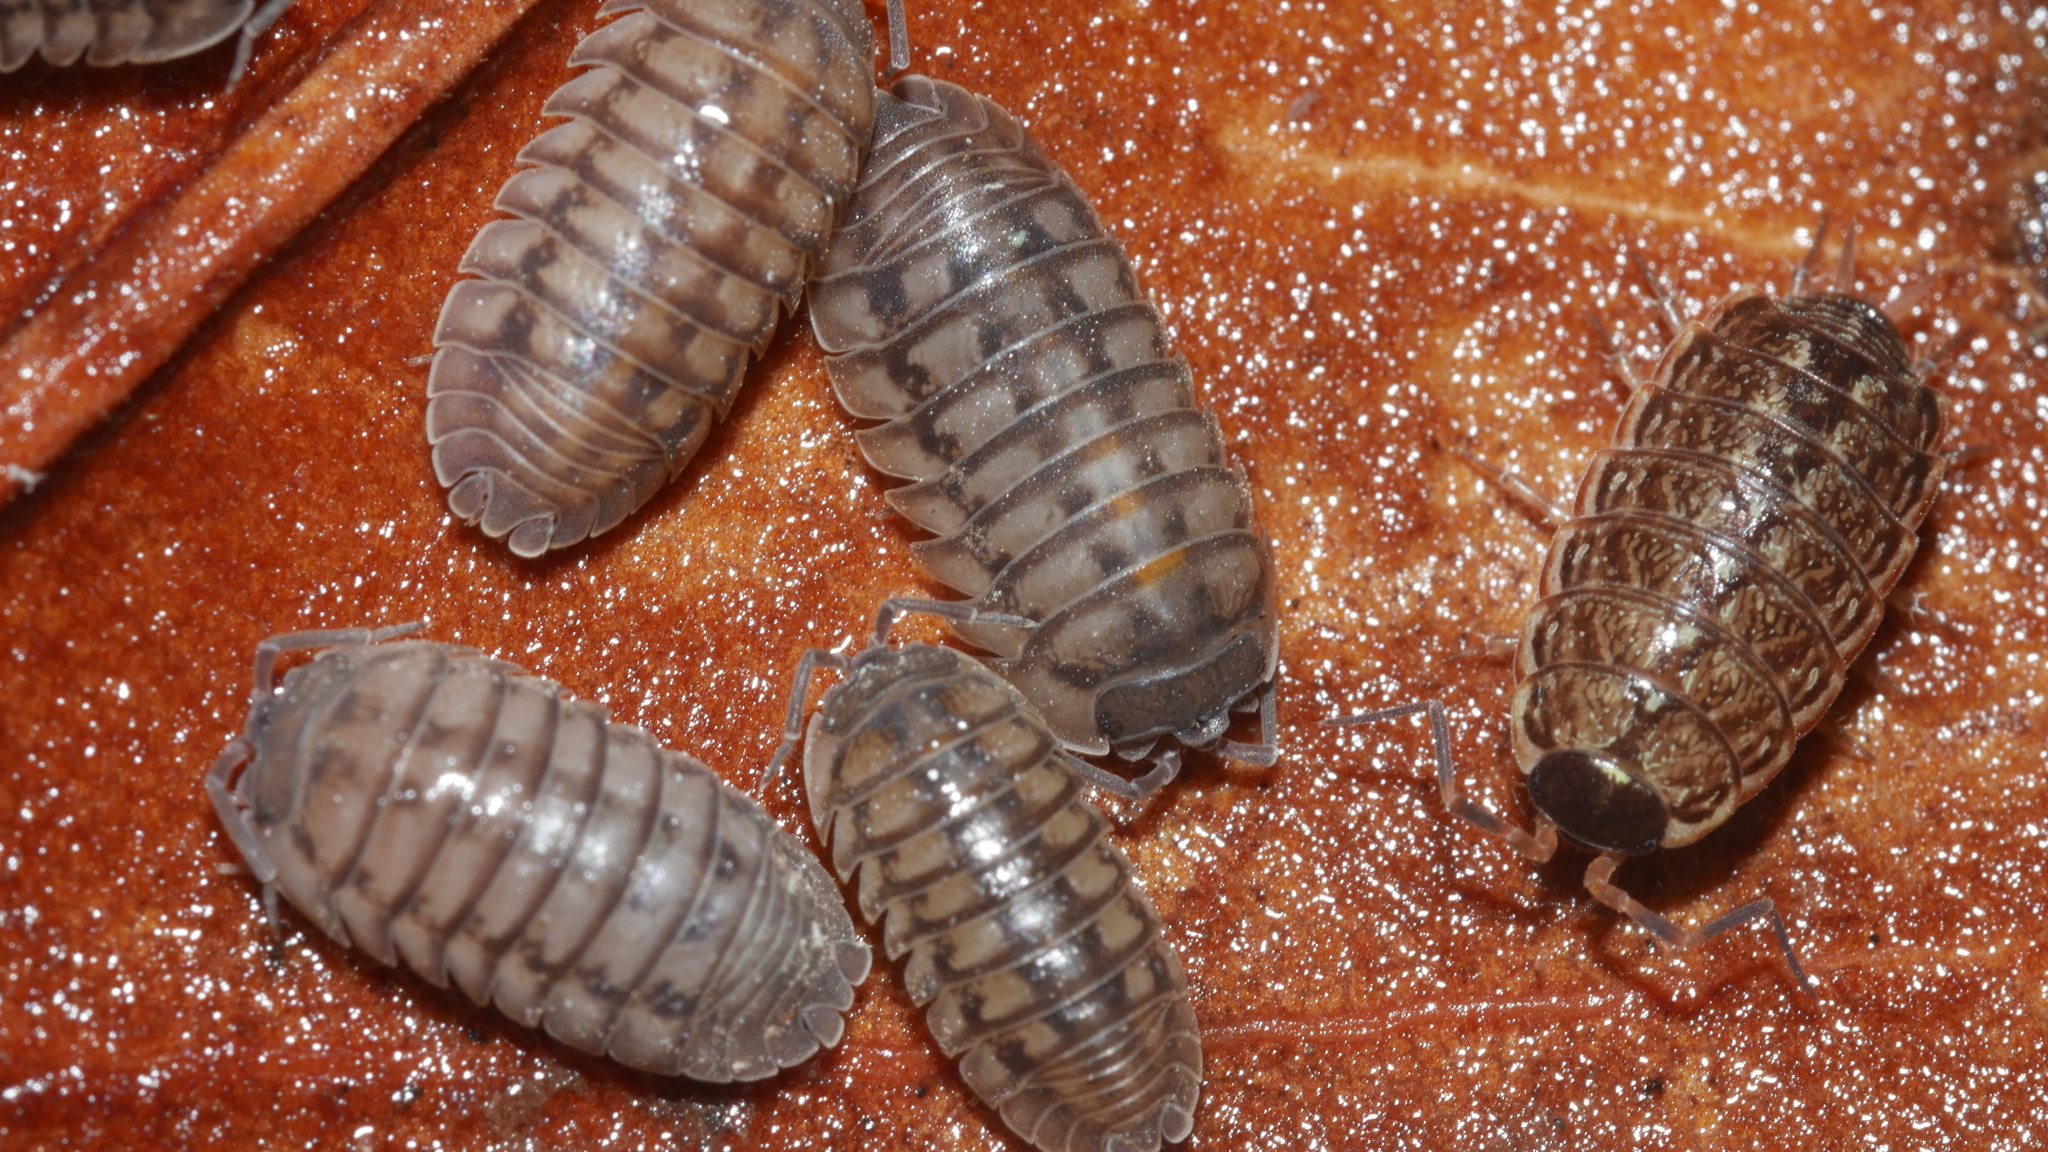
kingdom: Animalia
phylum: Arthropoda
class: Malacostraca
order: Isopoda
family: Armadillidiidae
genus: Armadillidium
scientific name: Armadillidium nasatum
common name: Isopod
